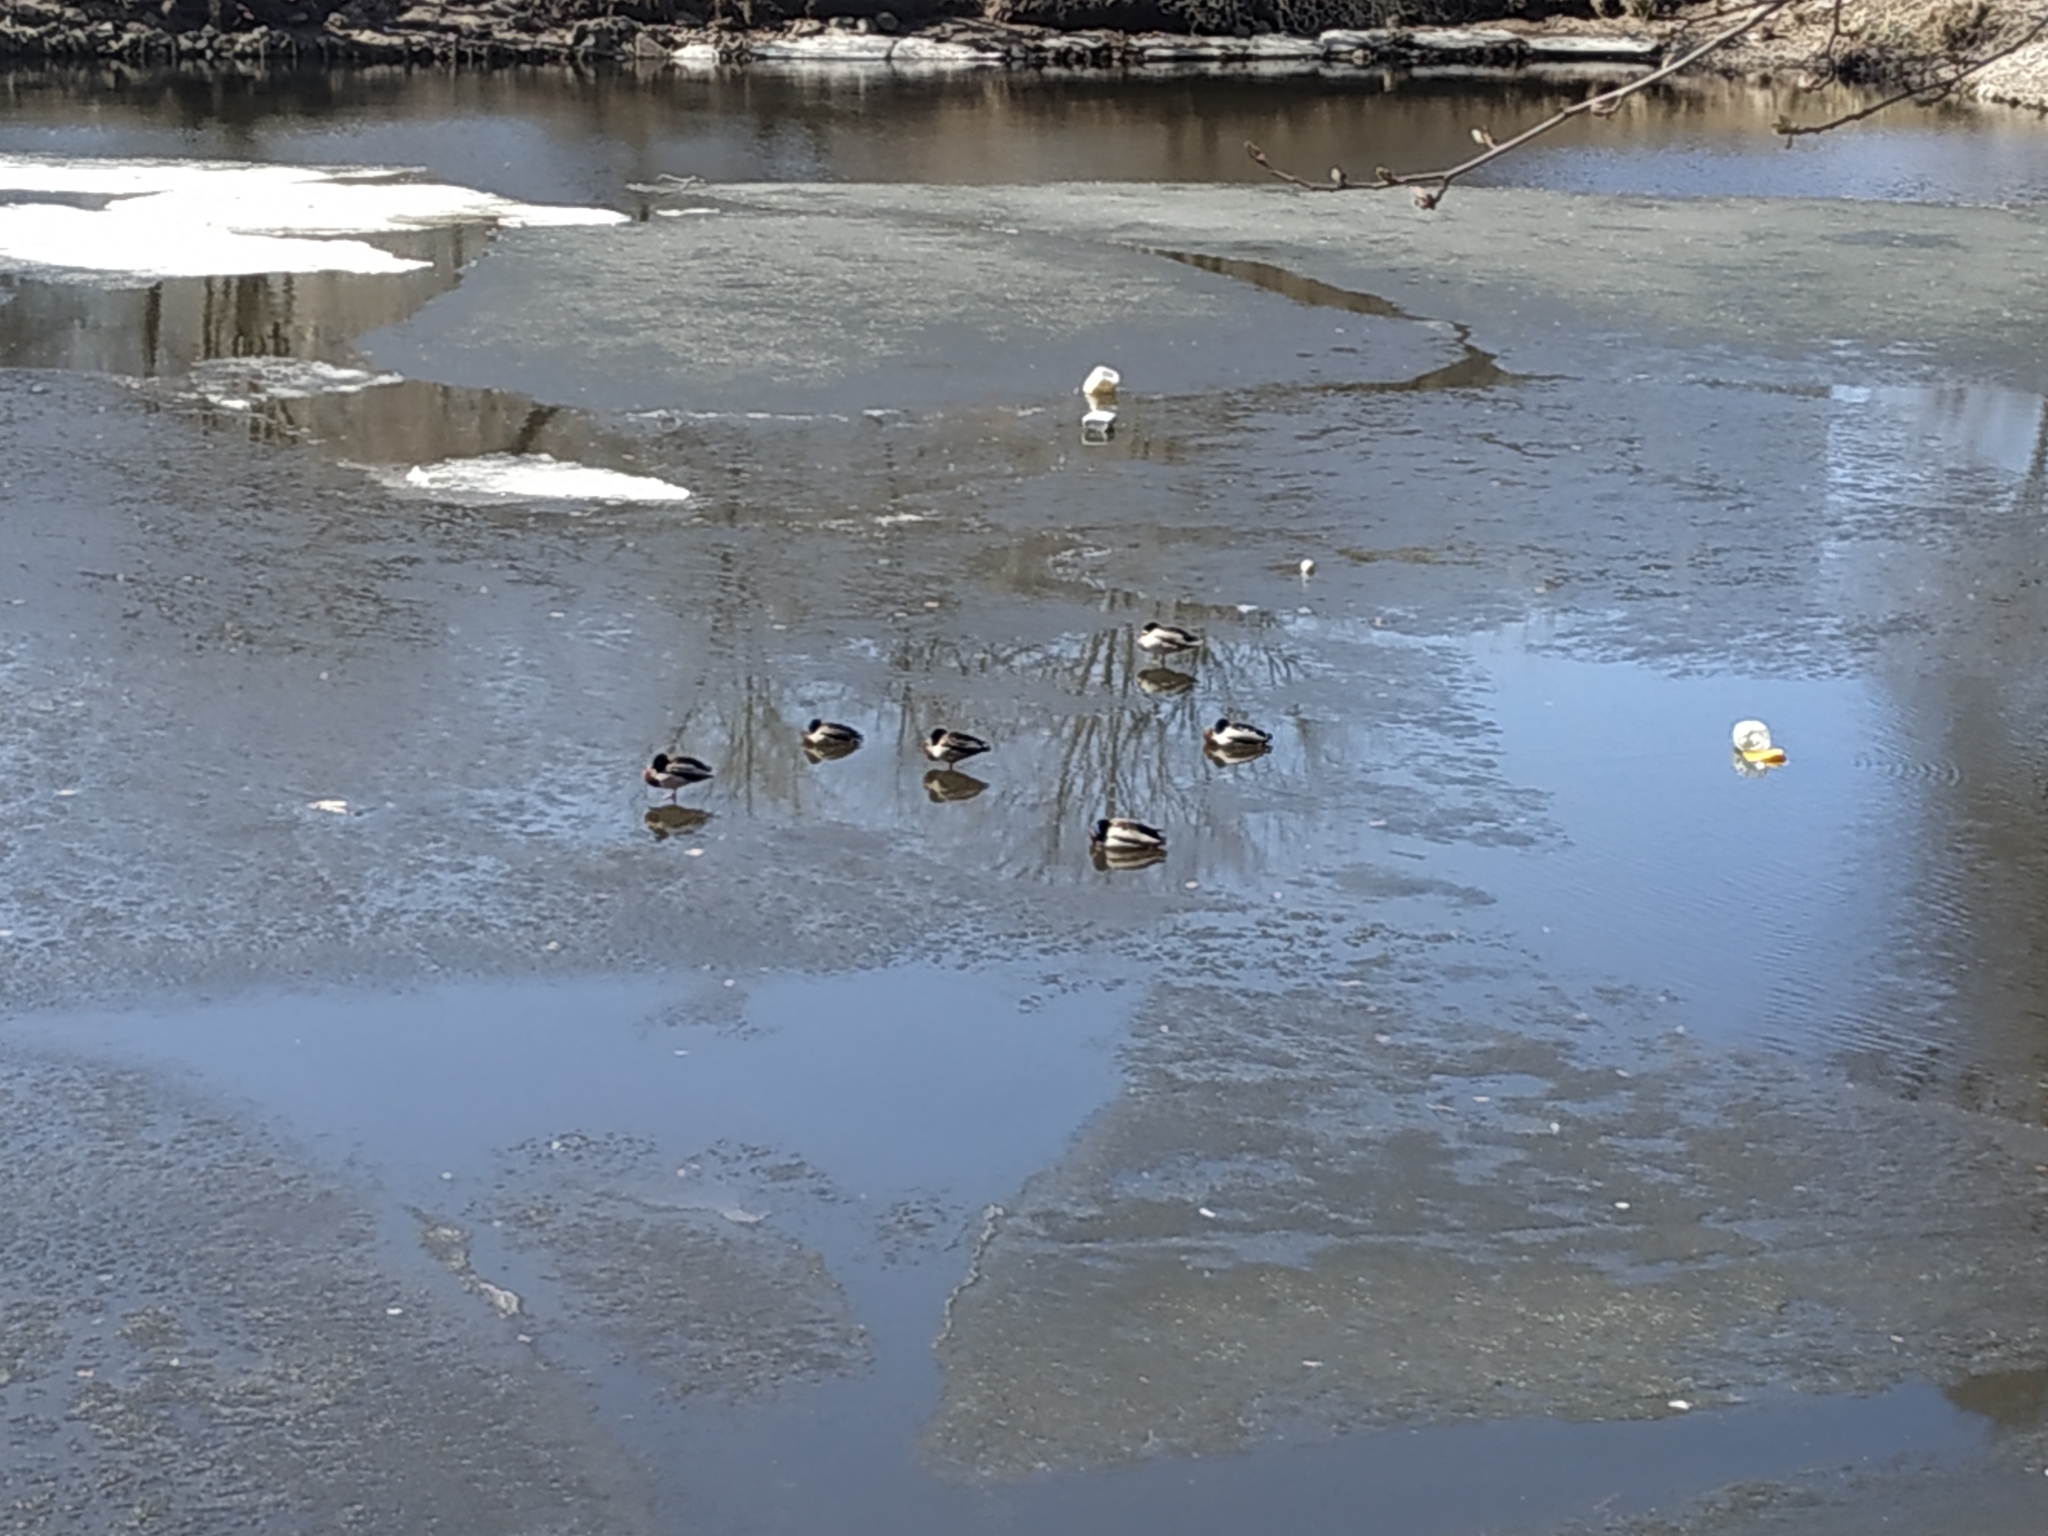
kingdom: Animalia
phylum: Chordata
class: Aves
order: Anseriformes
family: Anatidae
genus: Anas
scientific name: Anas platyrhynchos
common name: Mallard
